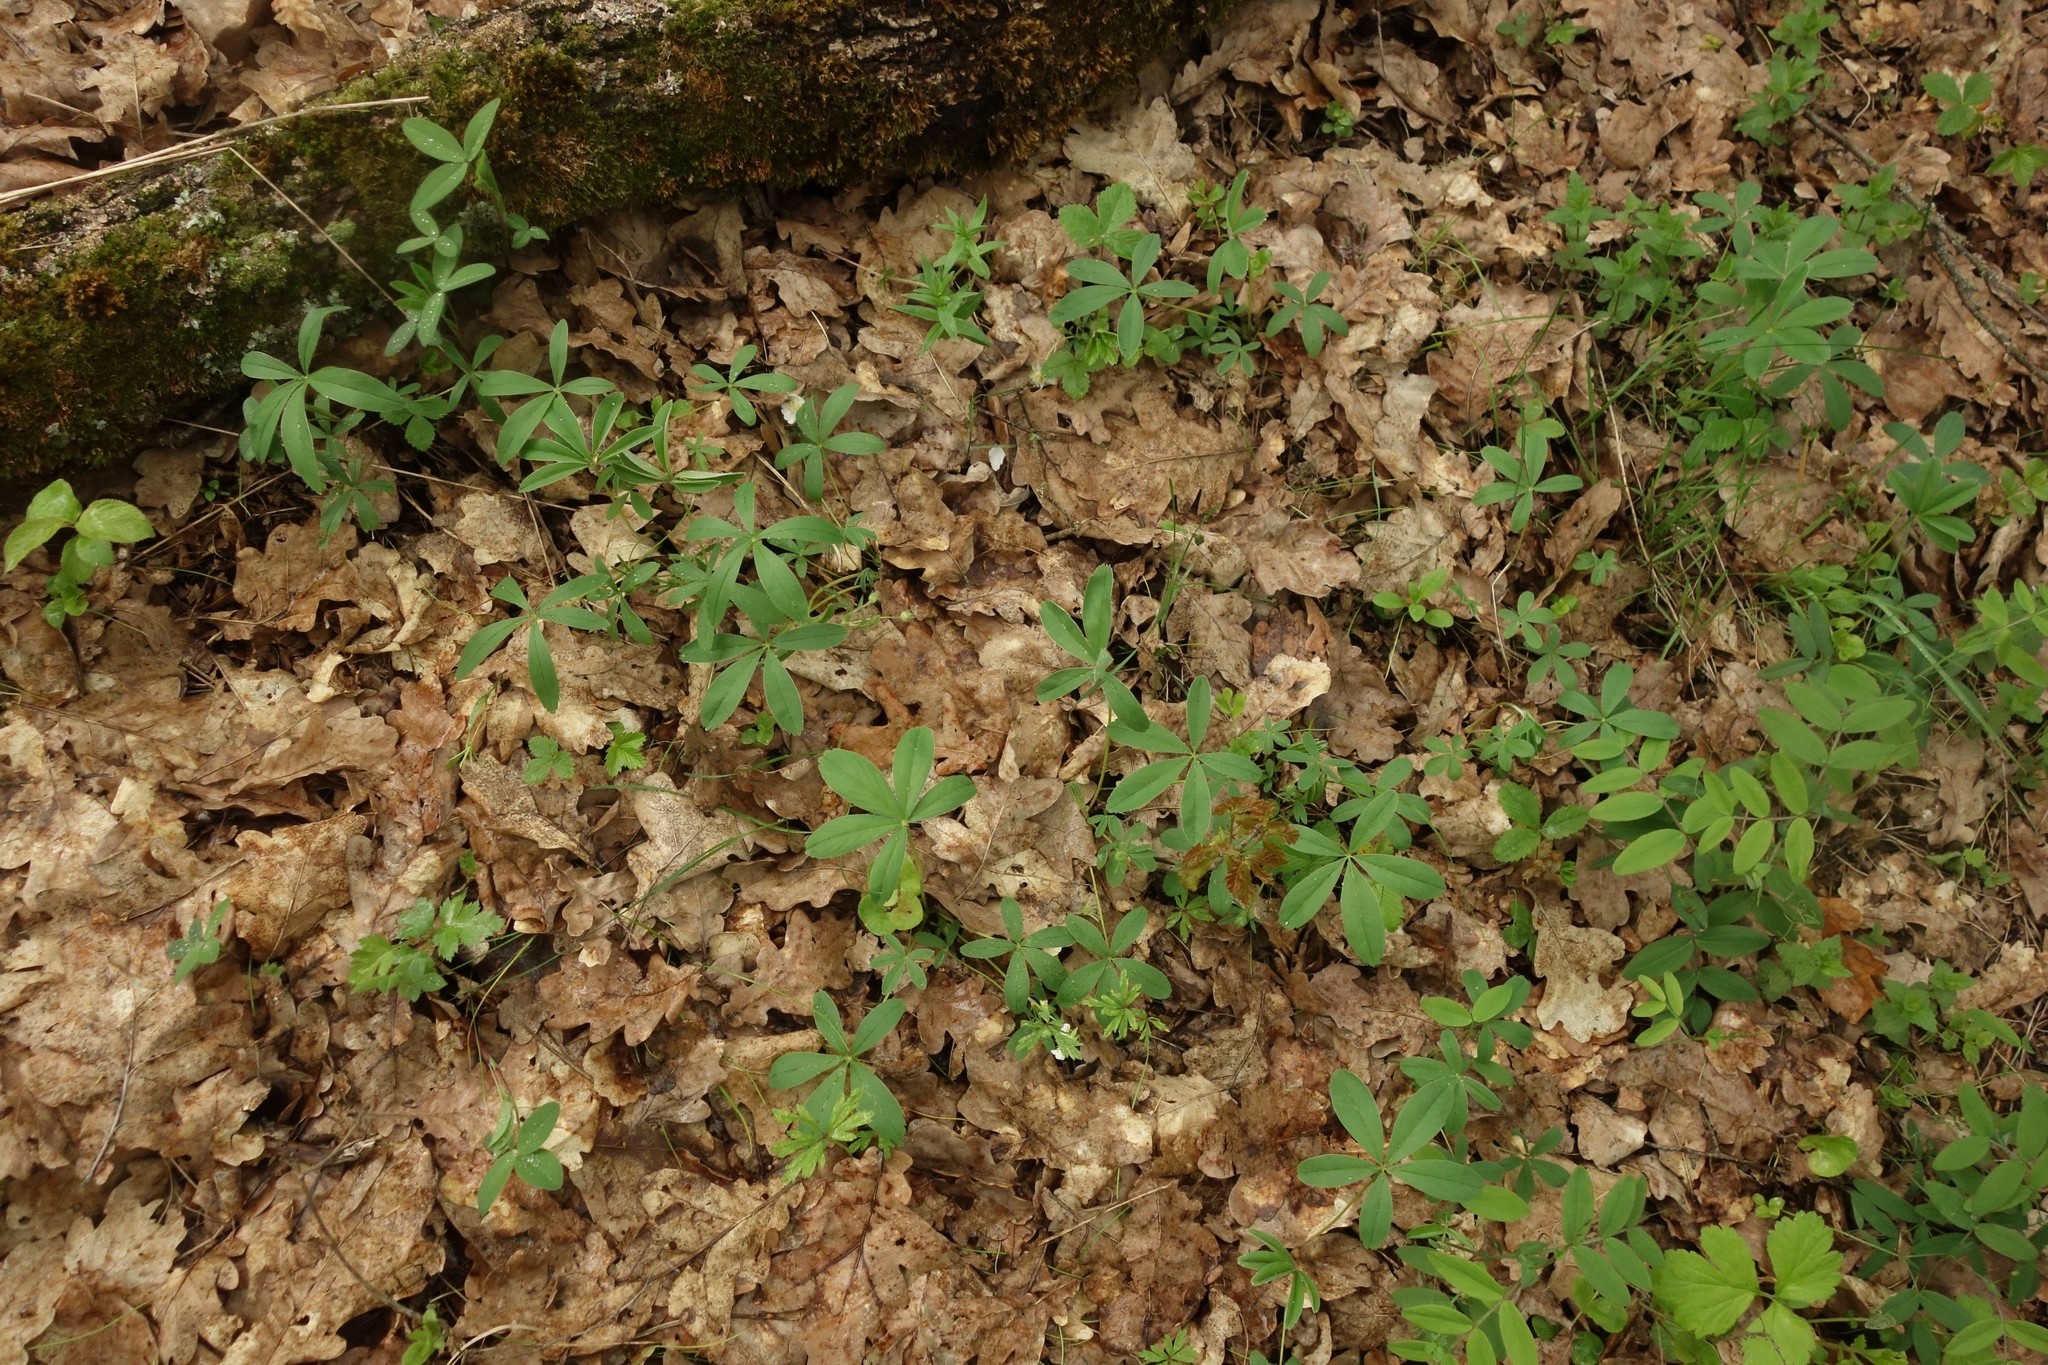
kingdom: Plantae
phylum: Tracheophyta
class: Magnoliopsida
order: Rosales
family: Rosaceae
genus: Potentilla
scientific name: Potentilla alba
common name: White cinquefoil
